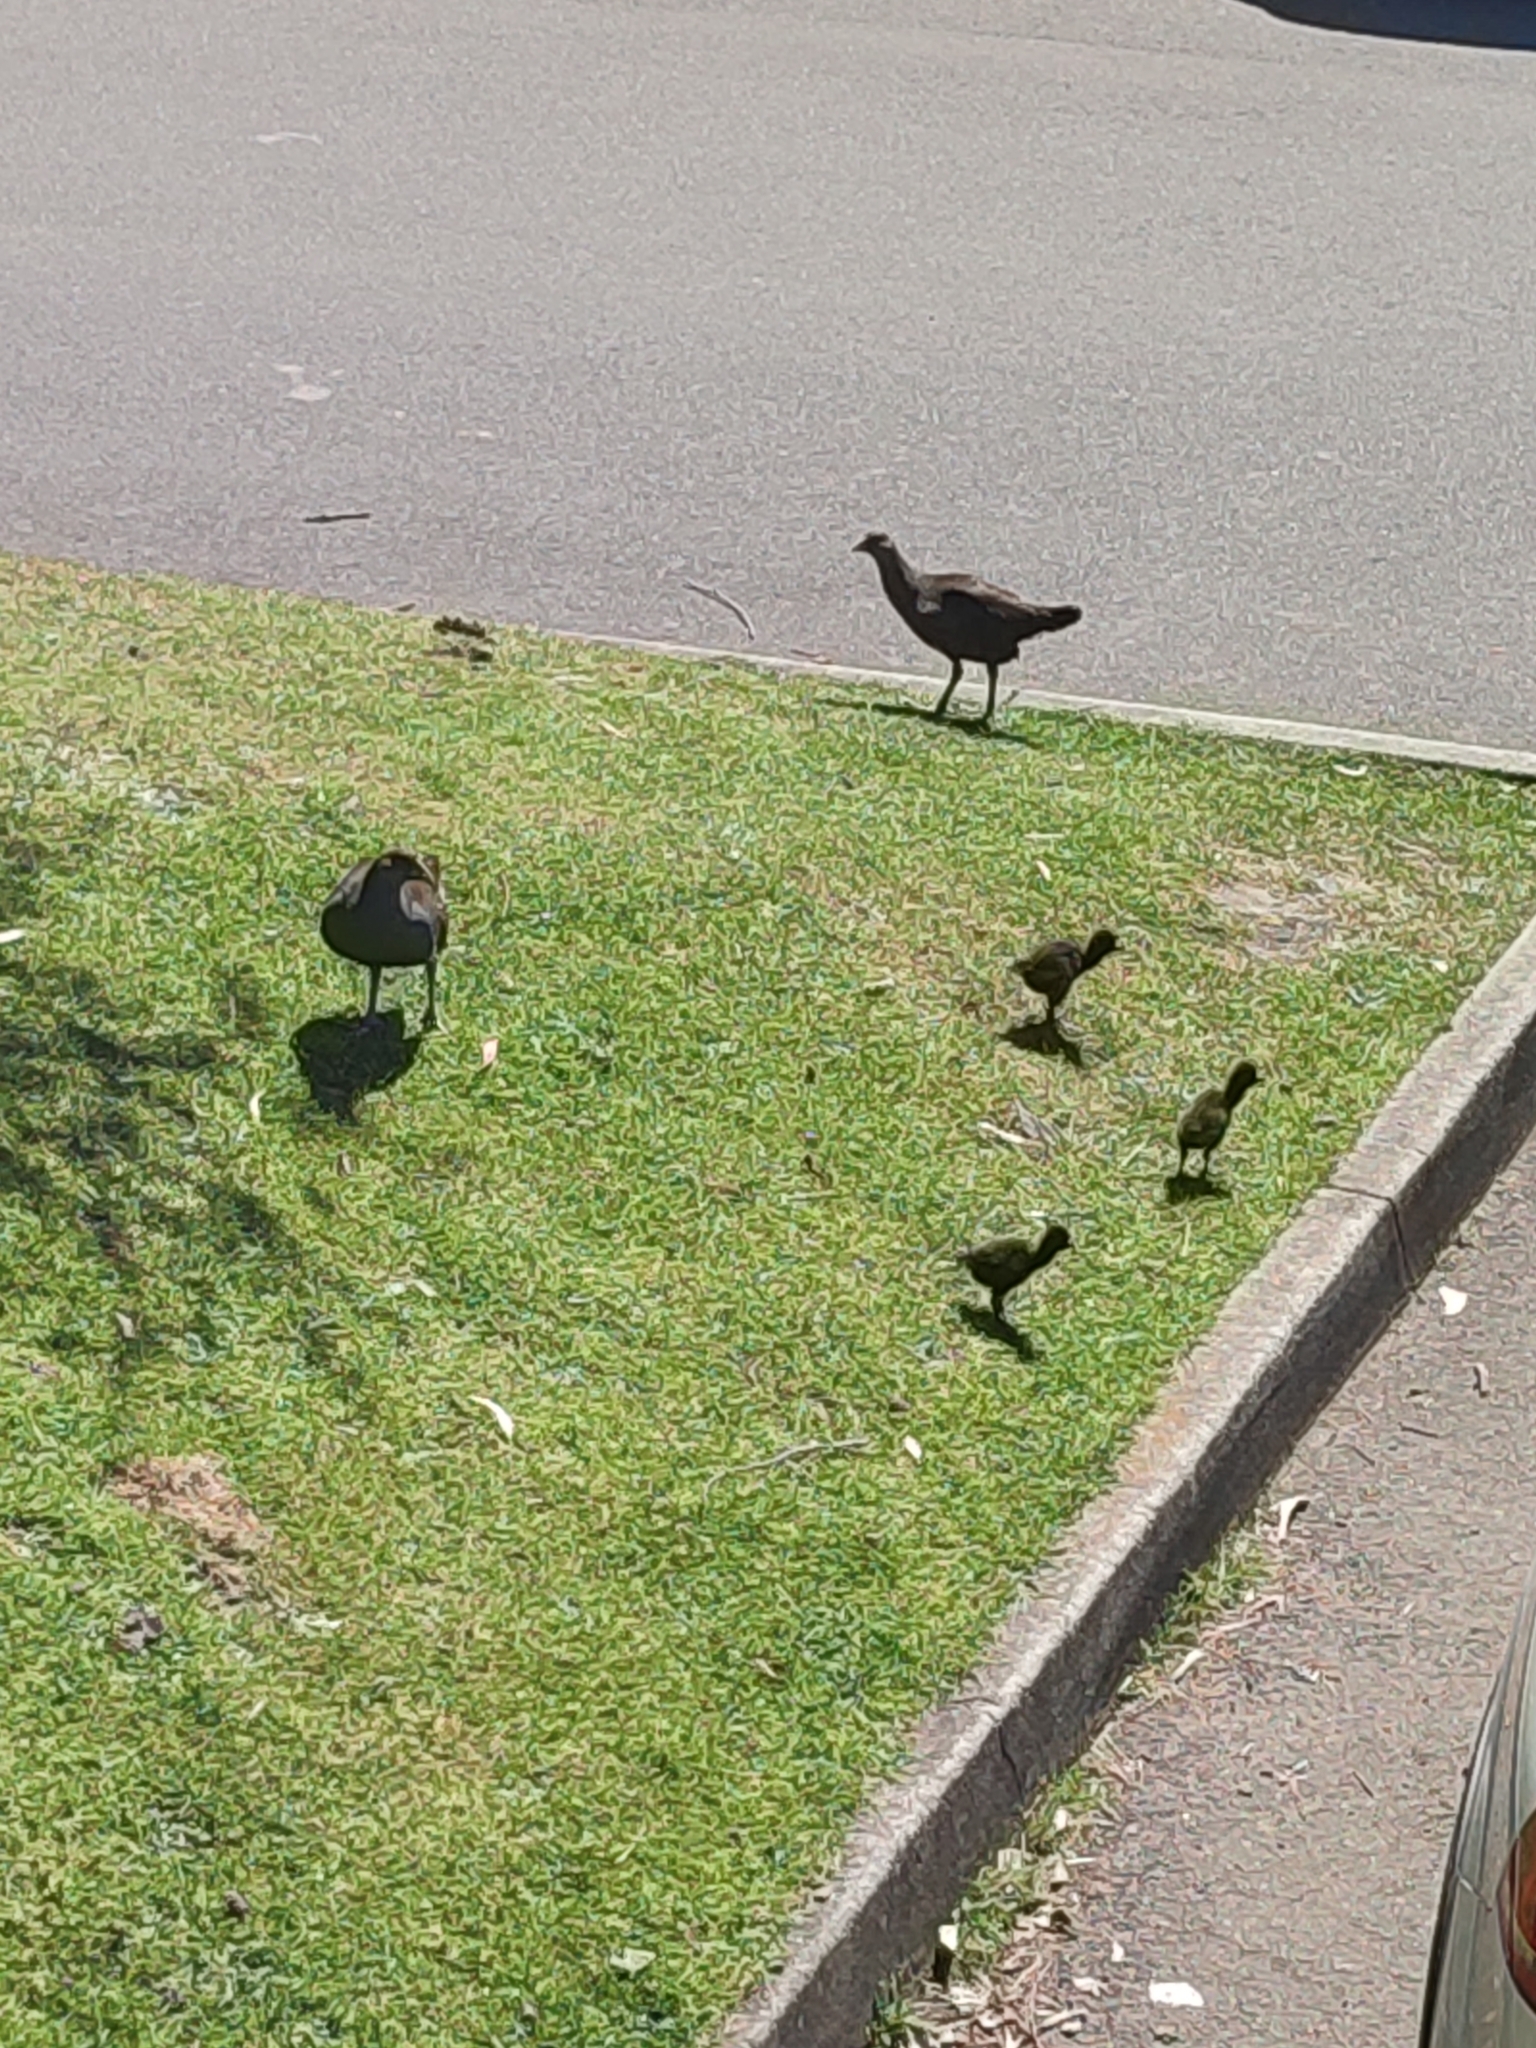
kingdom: Animalia
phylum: Chordata
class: Aves
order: Gruiformes
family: Rallidae
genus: Gallinula
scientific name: Gallinula mortierii
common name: Tasmanian nativehen
